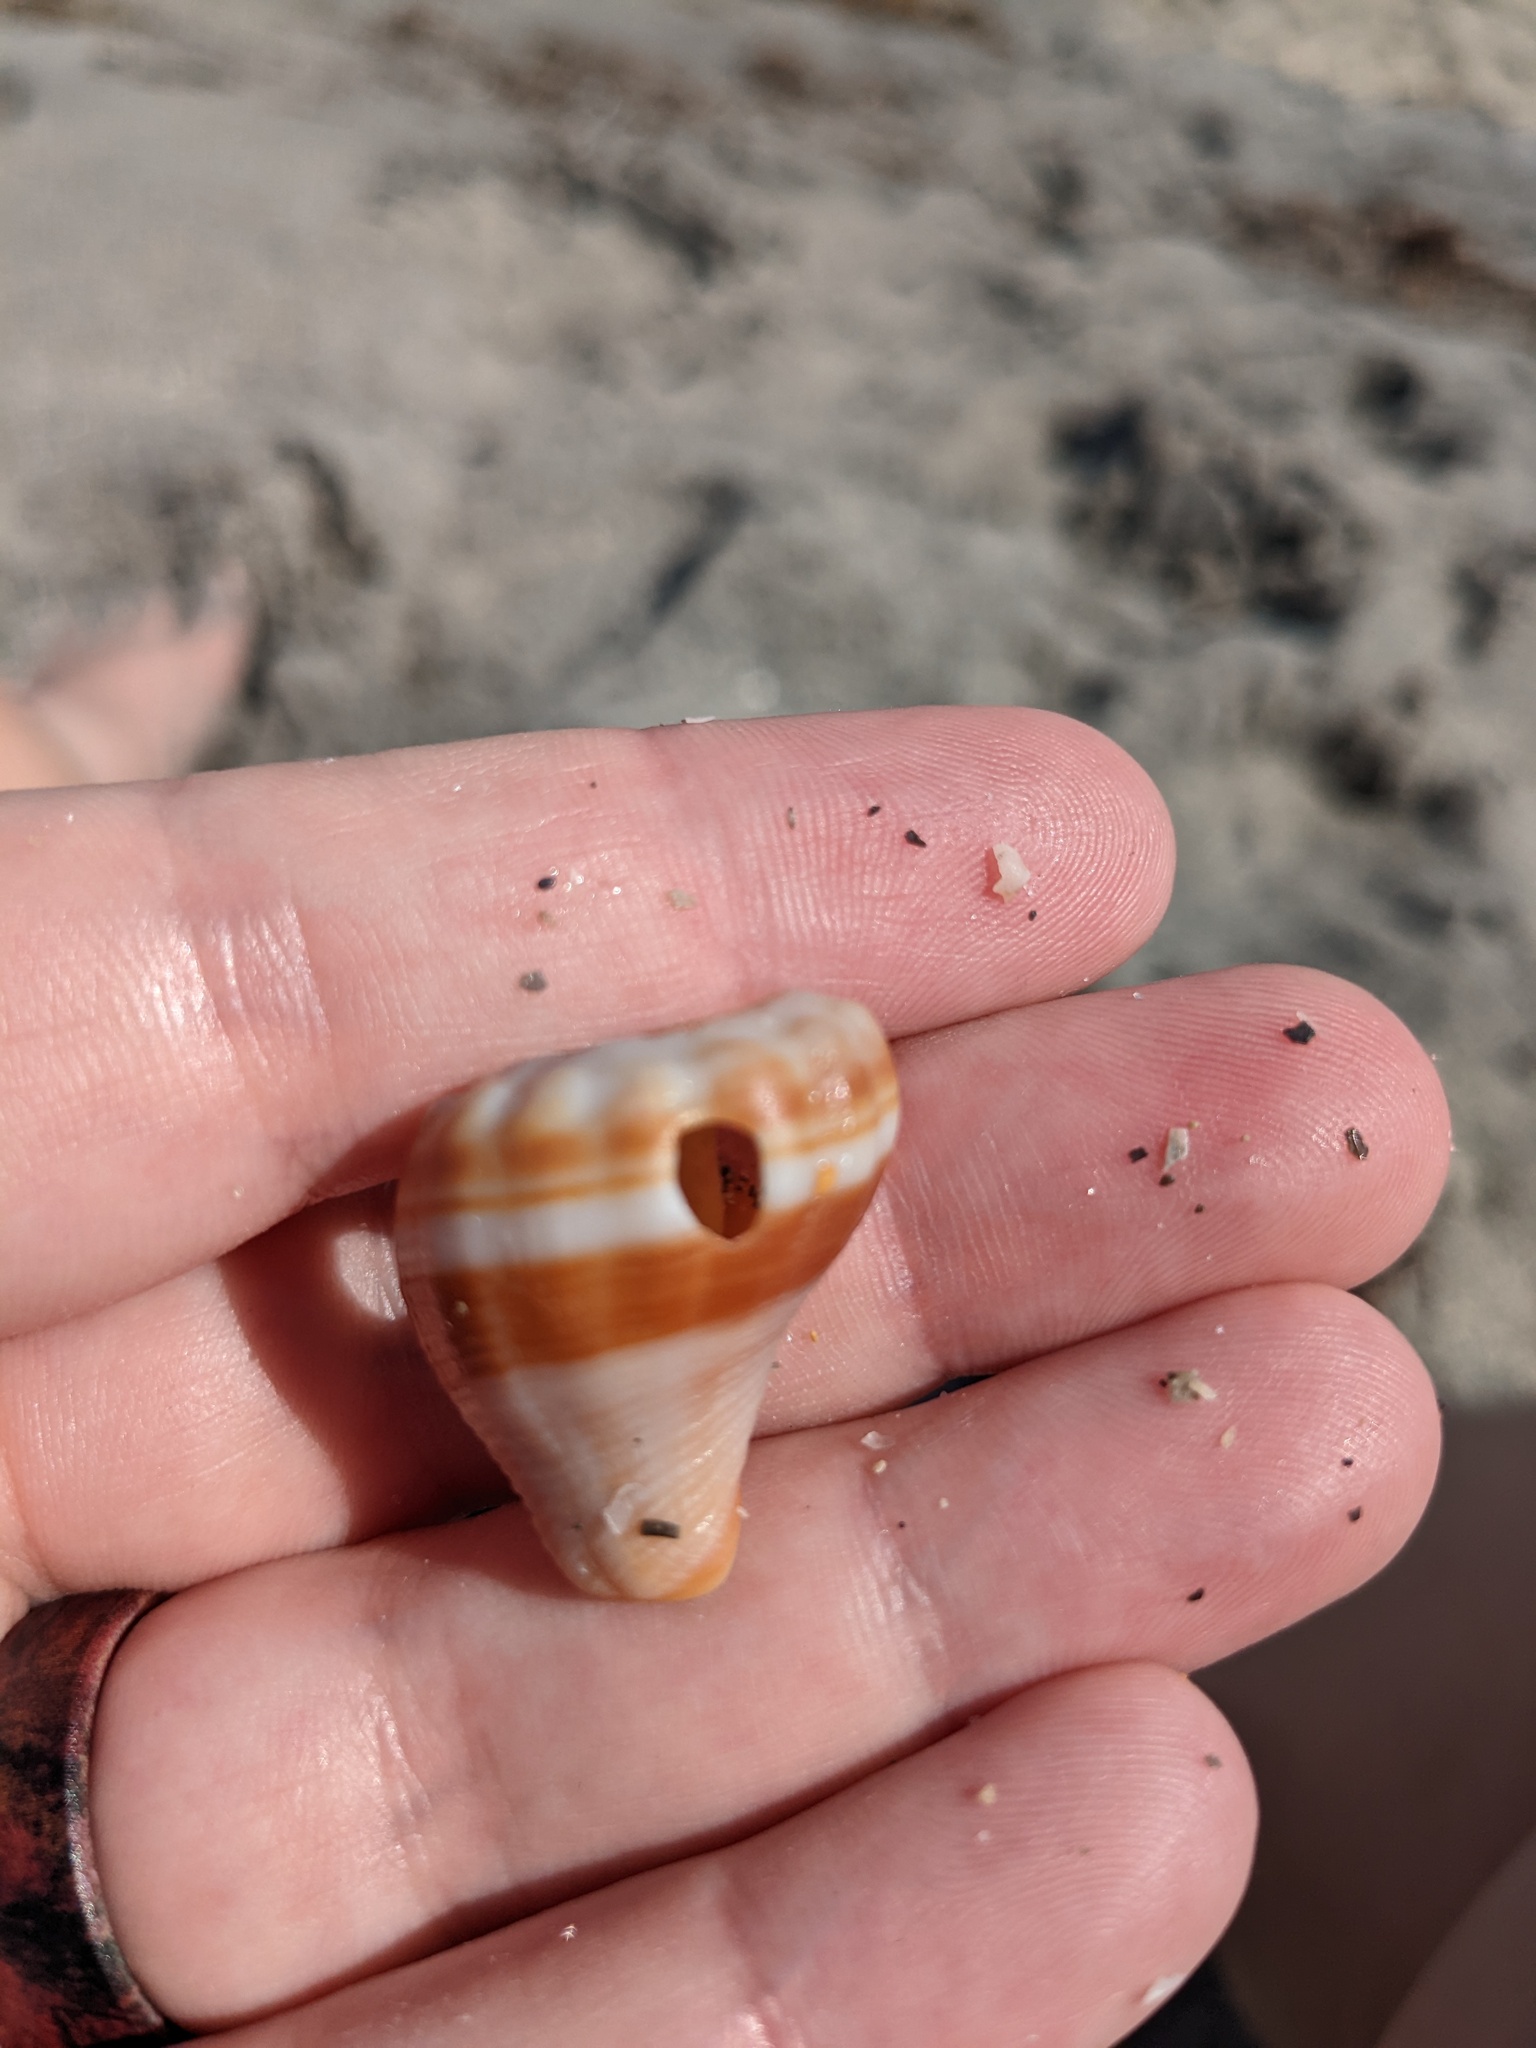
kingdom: Animalia
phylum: Mollusca
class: Gastropoda
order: Neogastropoda
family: Melongenidae
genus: Melongena
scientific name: Melongena corona
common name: American crown conch
